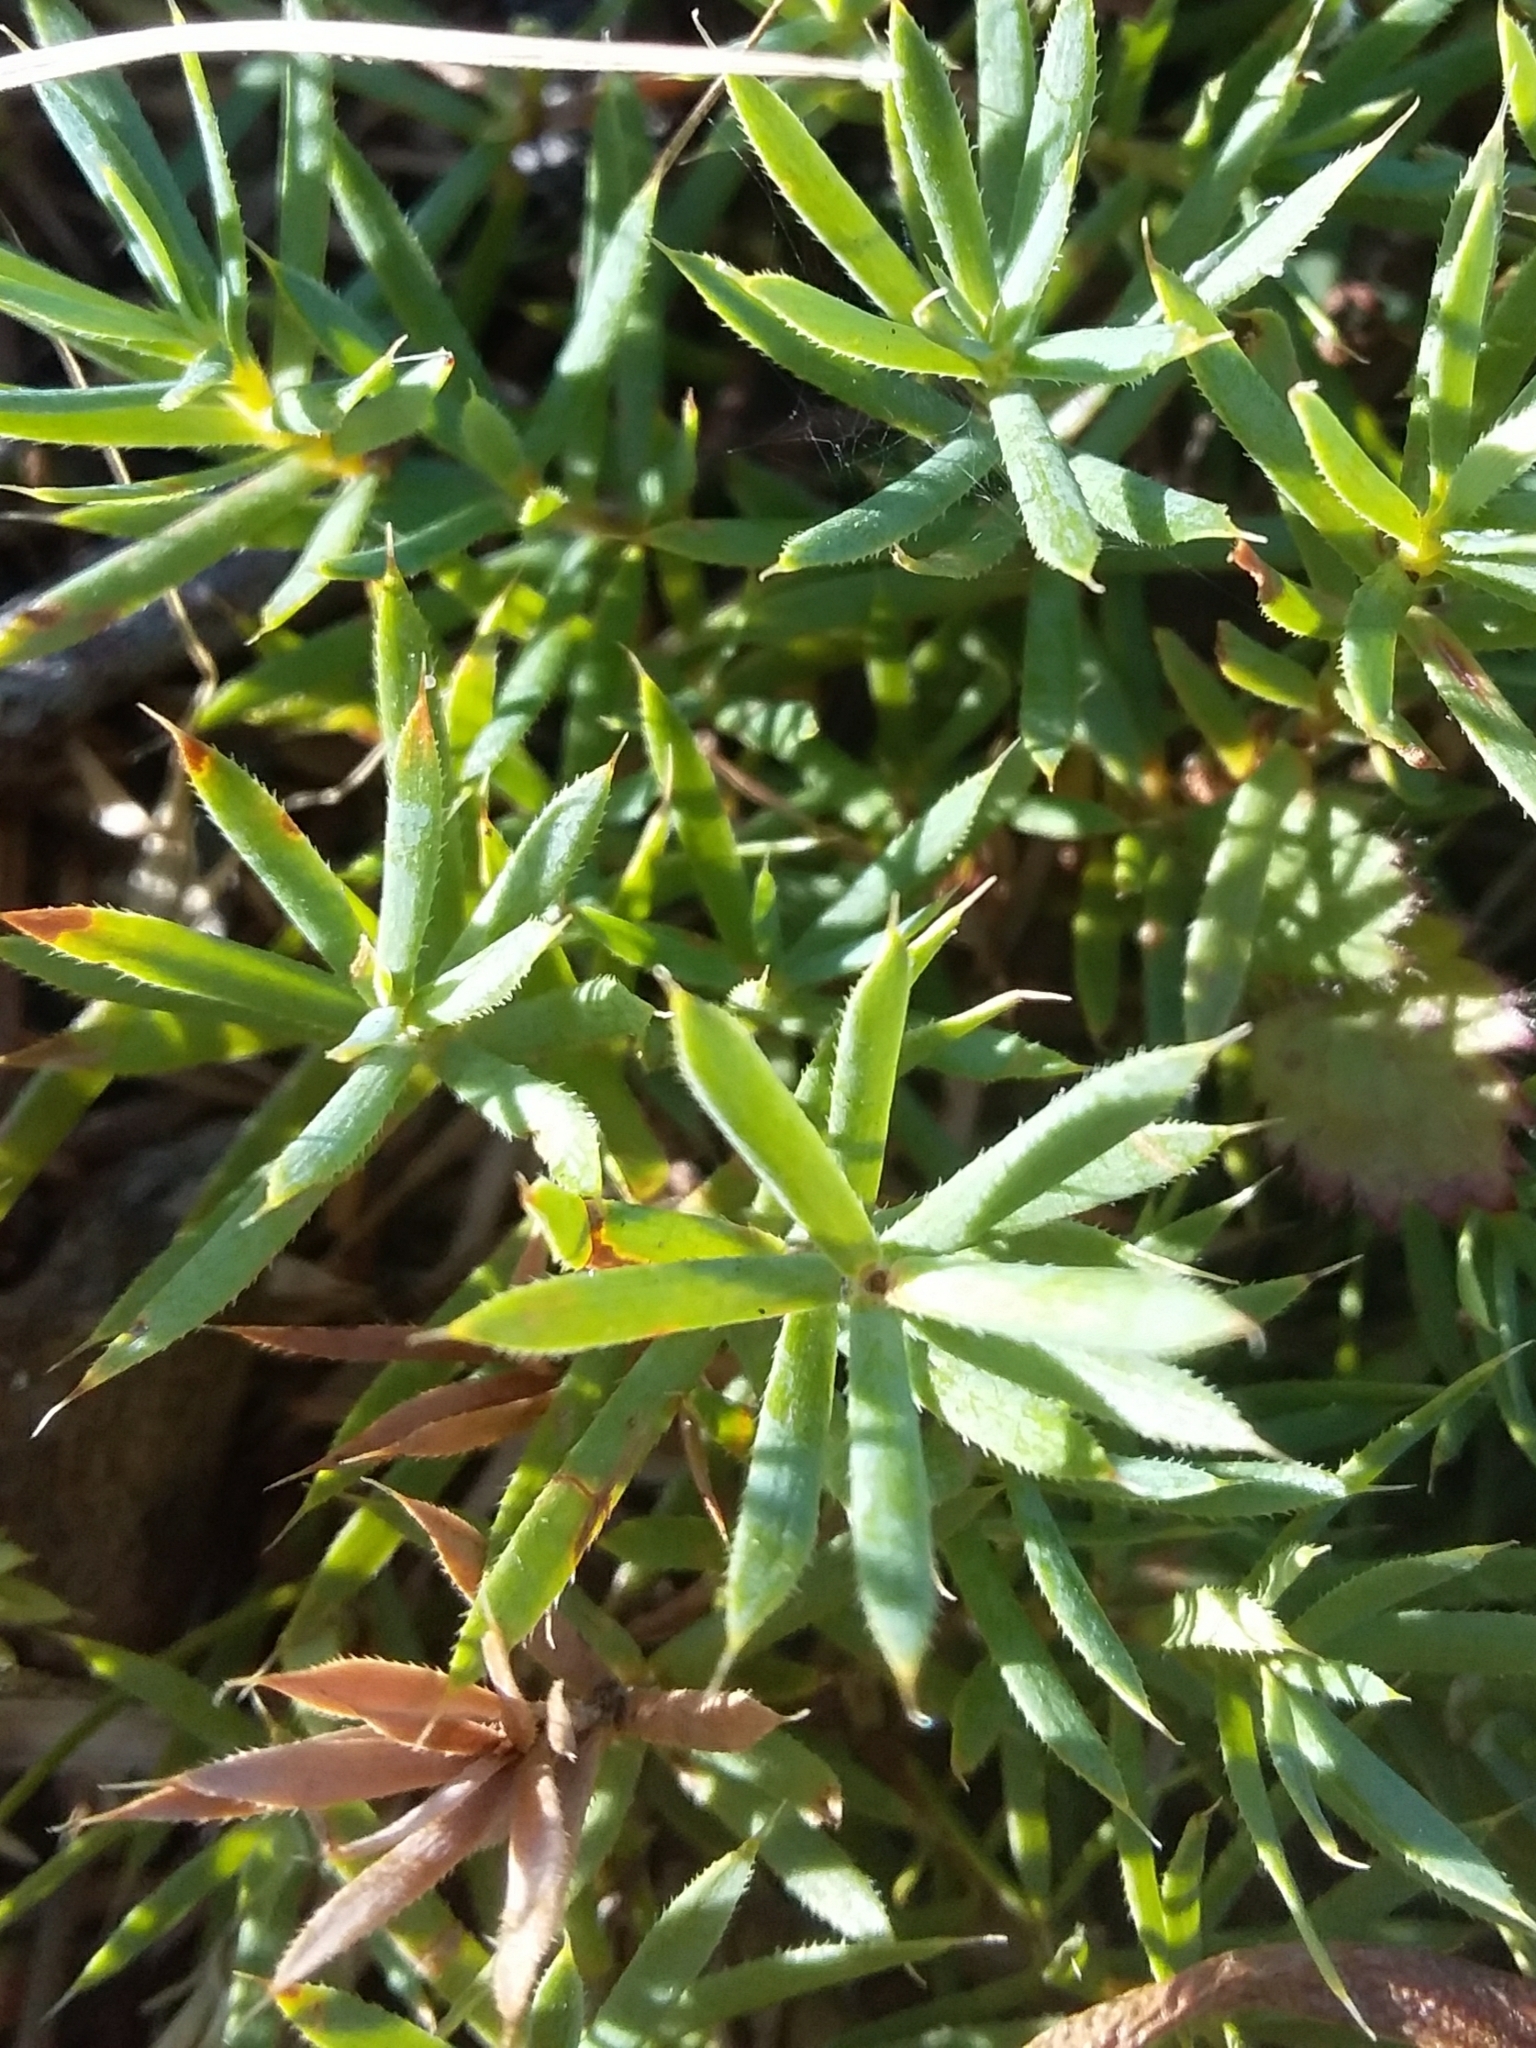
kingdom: Plantae
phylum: Tracheophyta
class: Magnoliopsida
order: Ericales
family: Ericaceae
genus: Styphelia
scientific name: Styphelia humifusa
